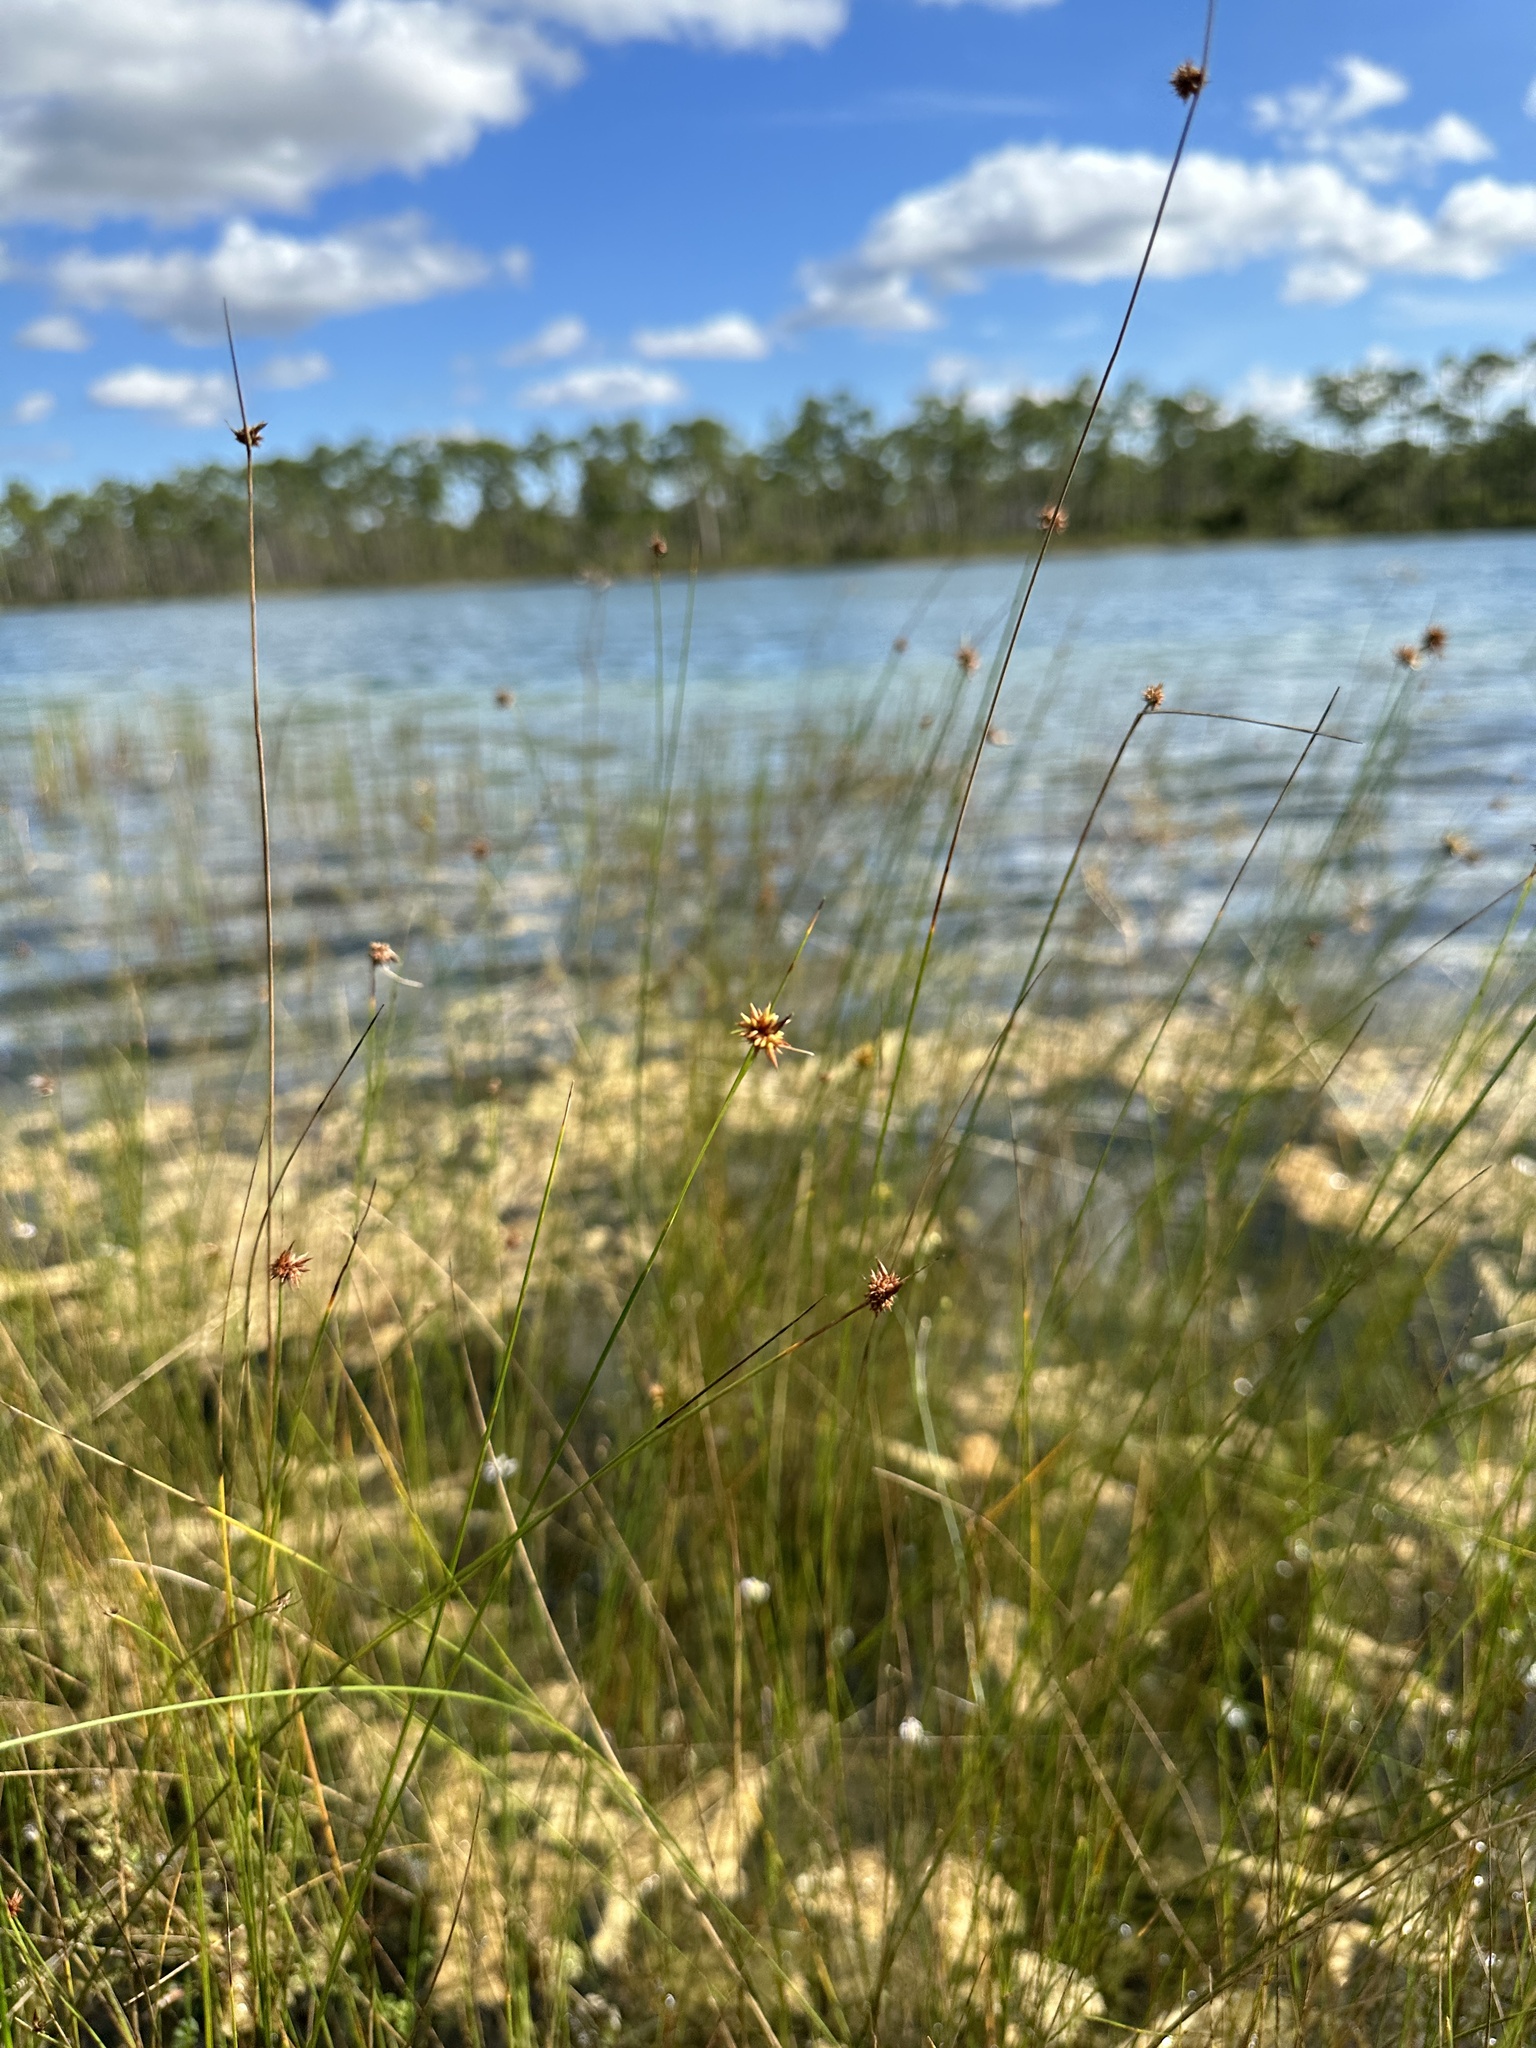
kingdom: Plantae
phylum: Tracheophyta
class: Liliopsida
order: Poales
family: Cyperaceae
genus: Rhynchospora
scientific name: Rhynchospora tracyi
